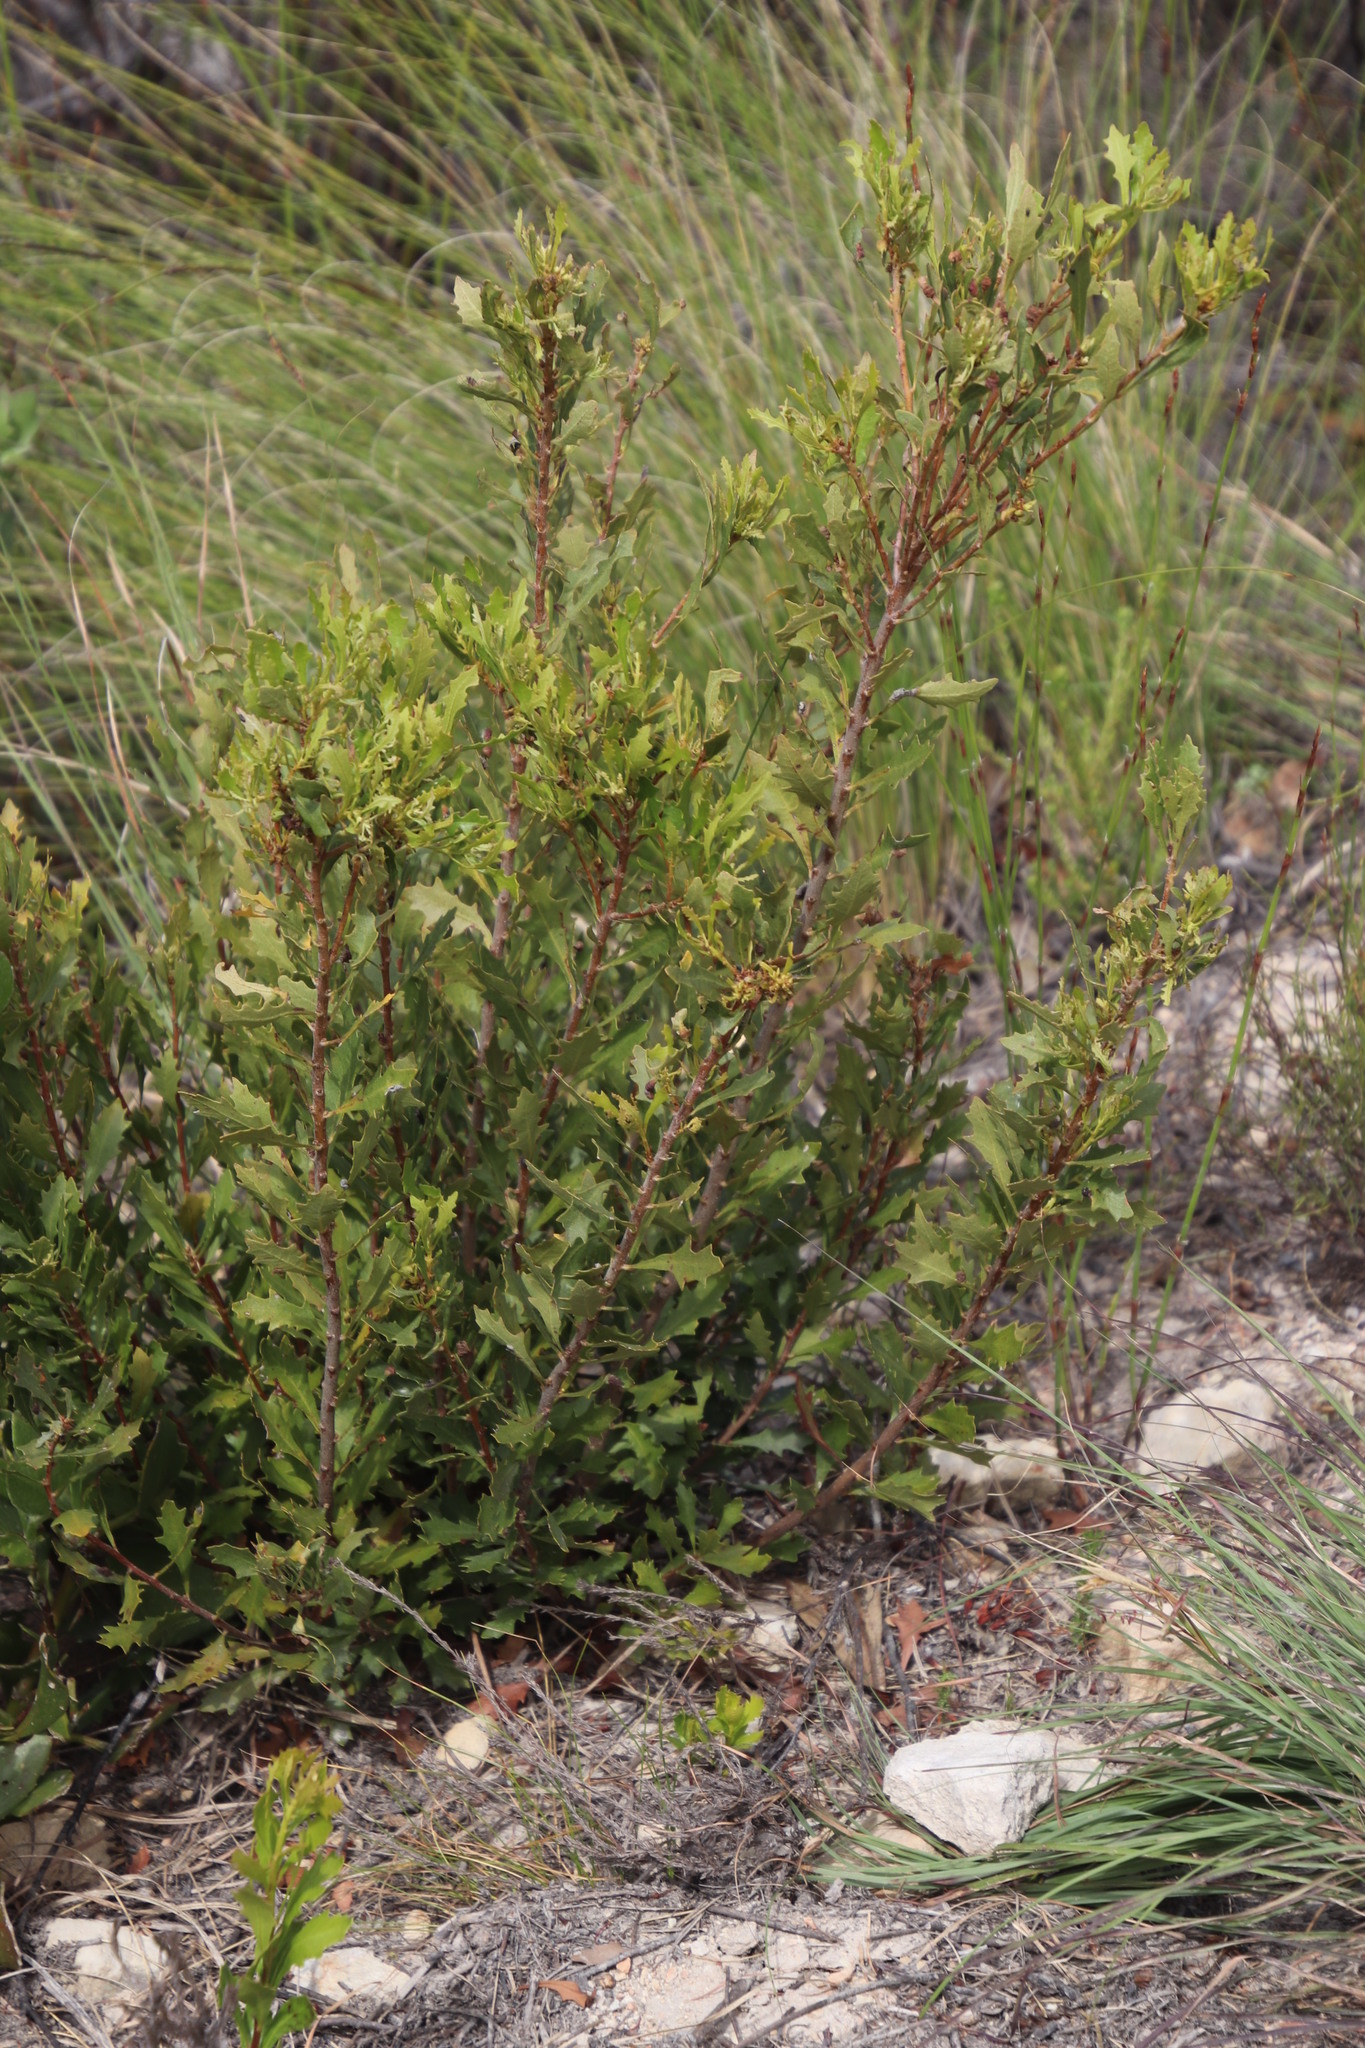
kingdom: Plantae
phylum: Tracheophyta
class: Magnoliopsida
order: Fagales
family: Myricaceae
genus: Morella
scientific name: Morella quercifolia
